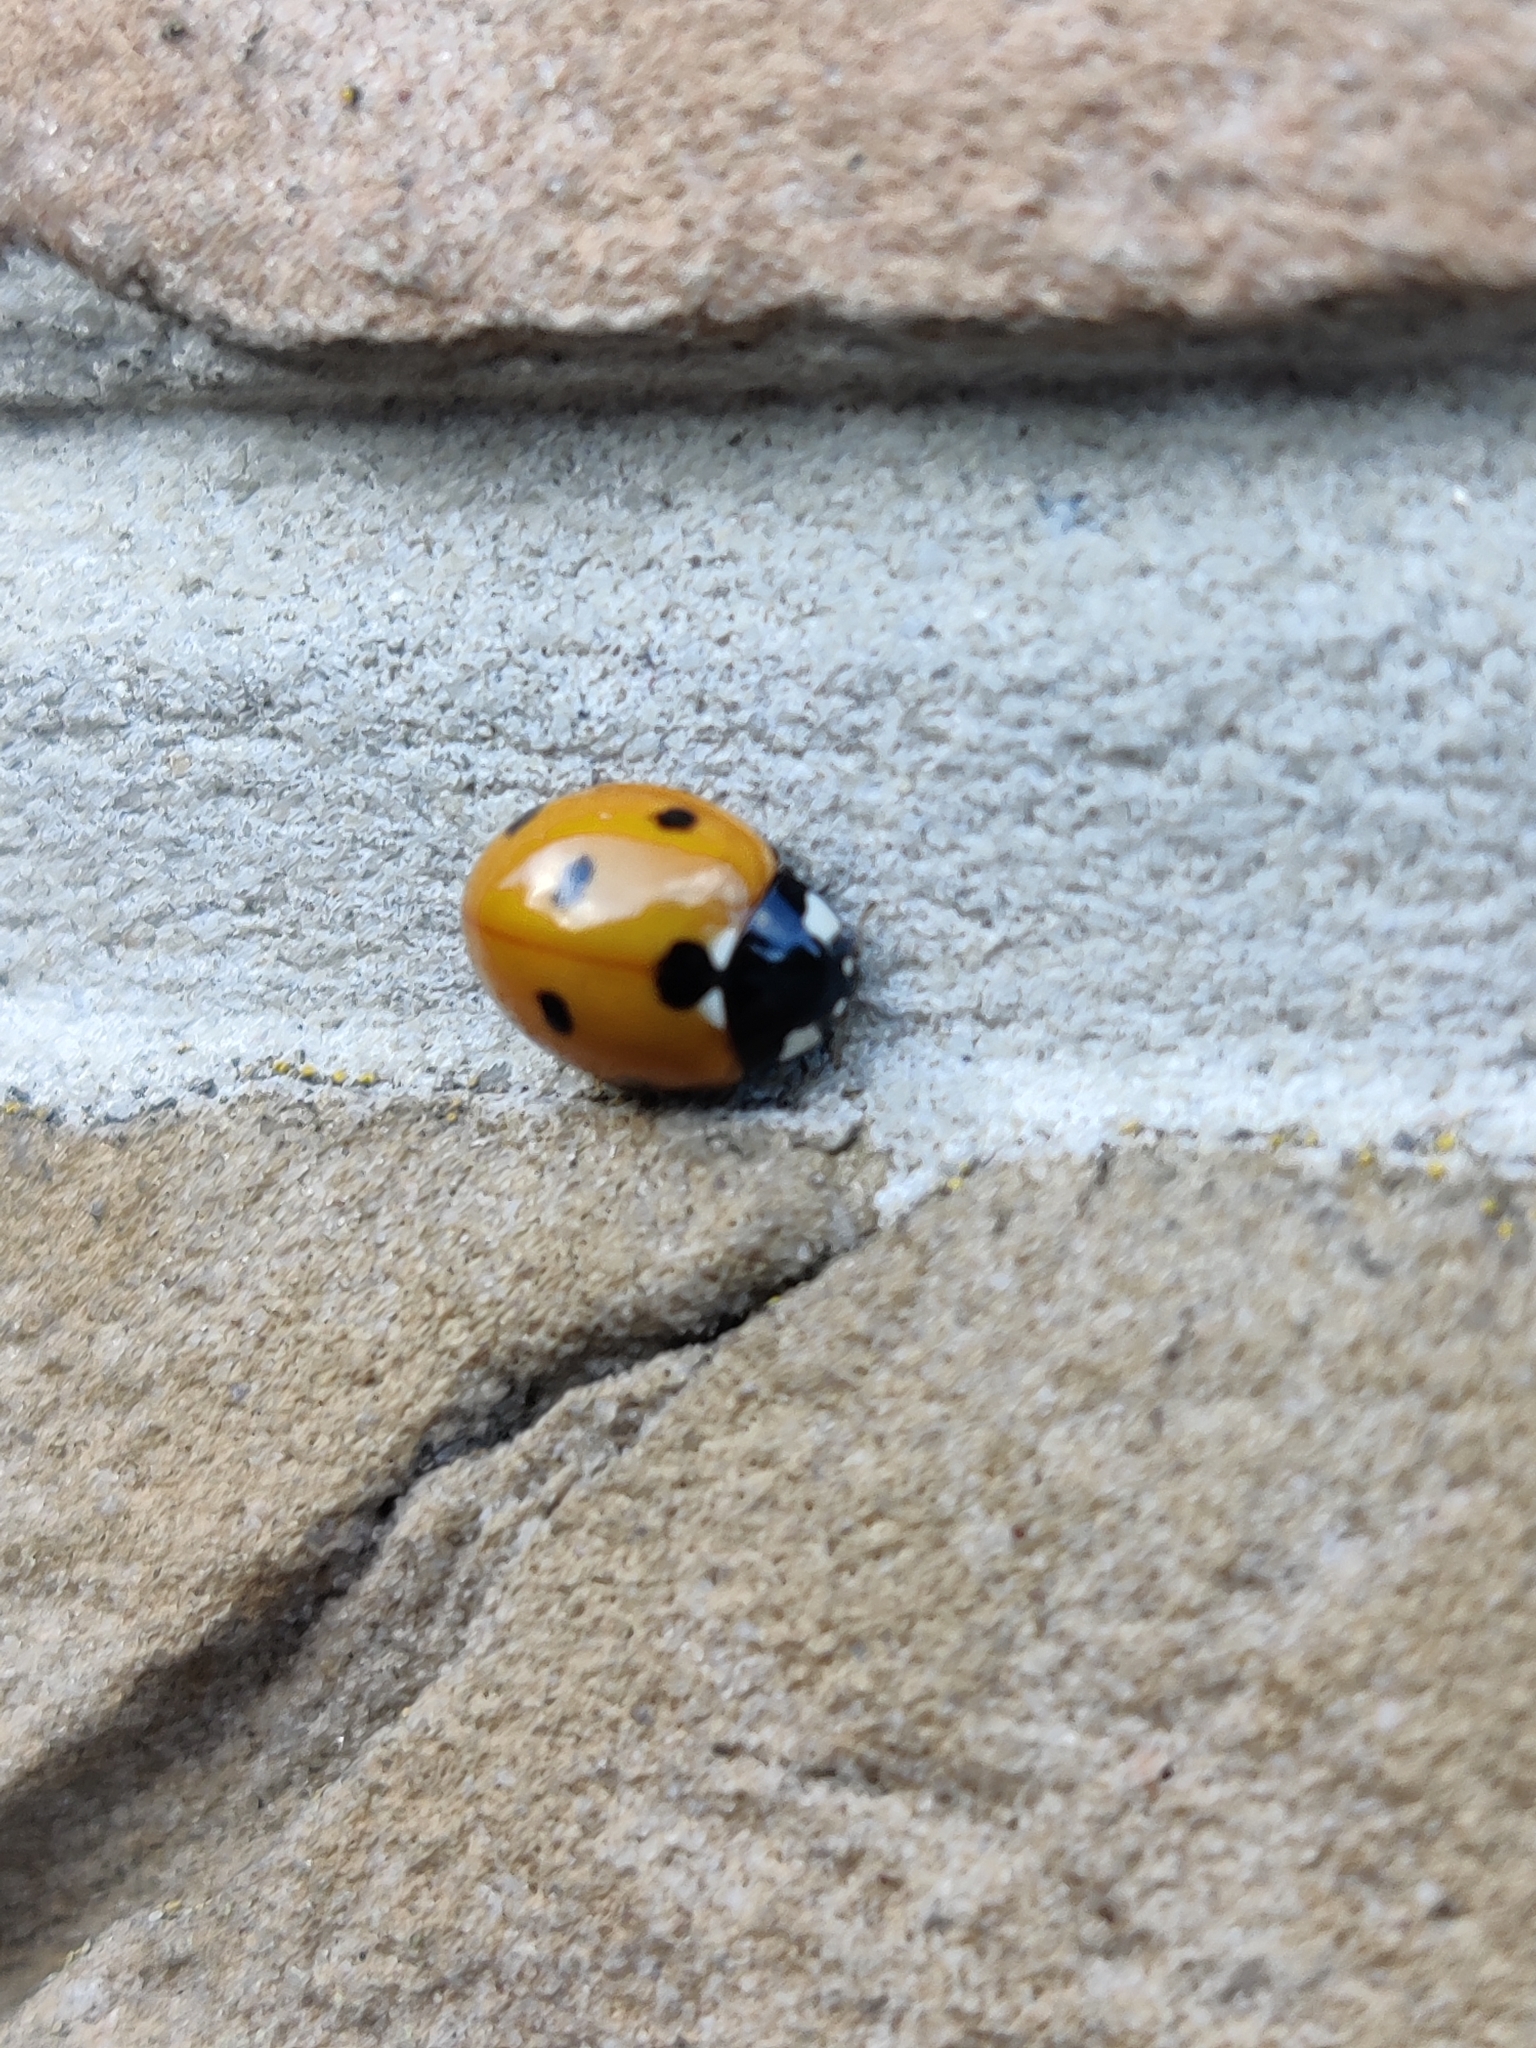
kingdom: Animalia
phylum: Arthropoda
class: Insecta
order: Coleoptera
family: Coccinellidae
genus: Coccinella
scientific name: Coccinella septempunctata
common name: Sevenspotted lady beetle
